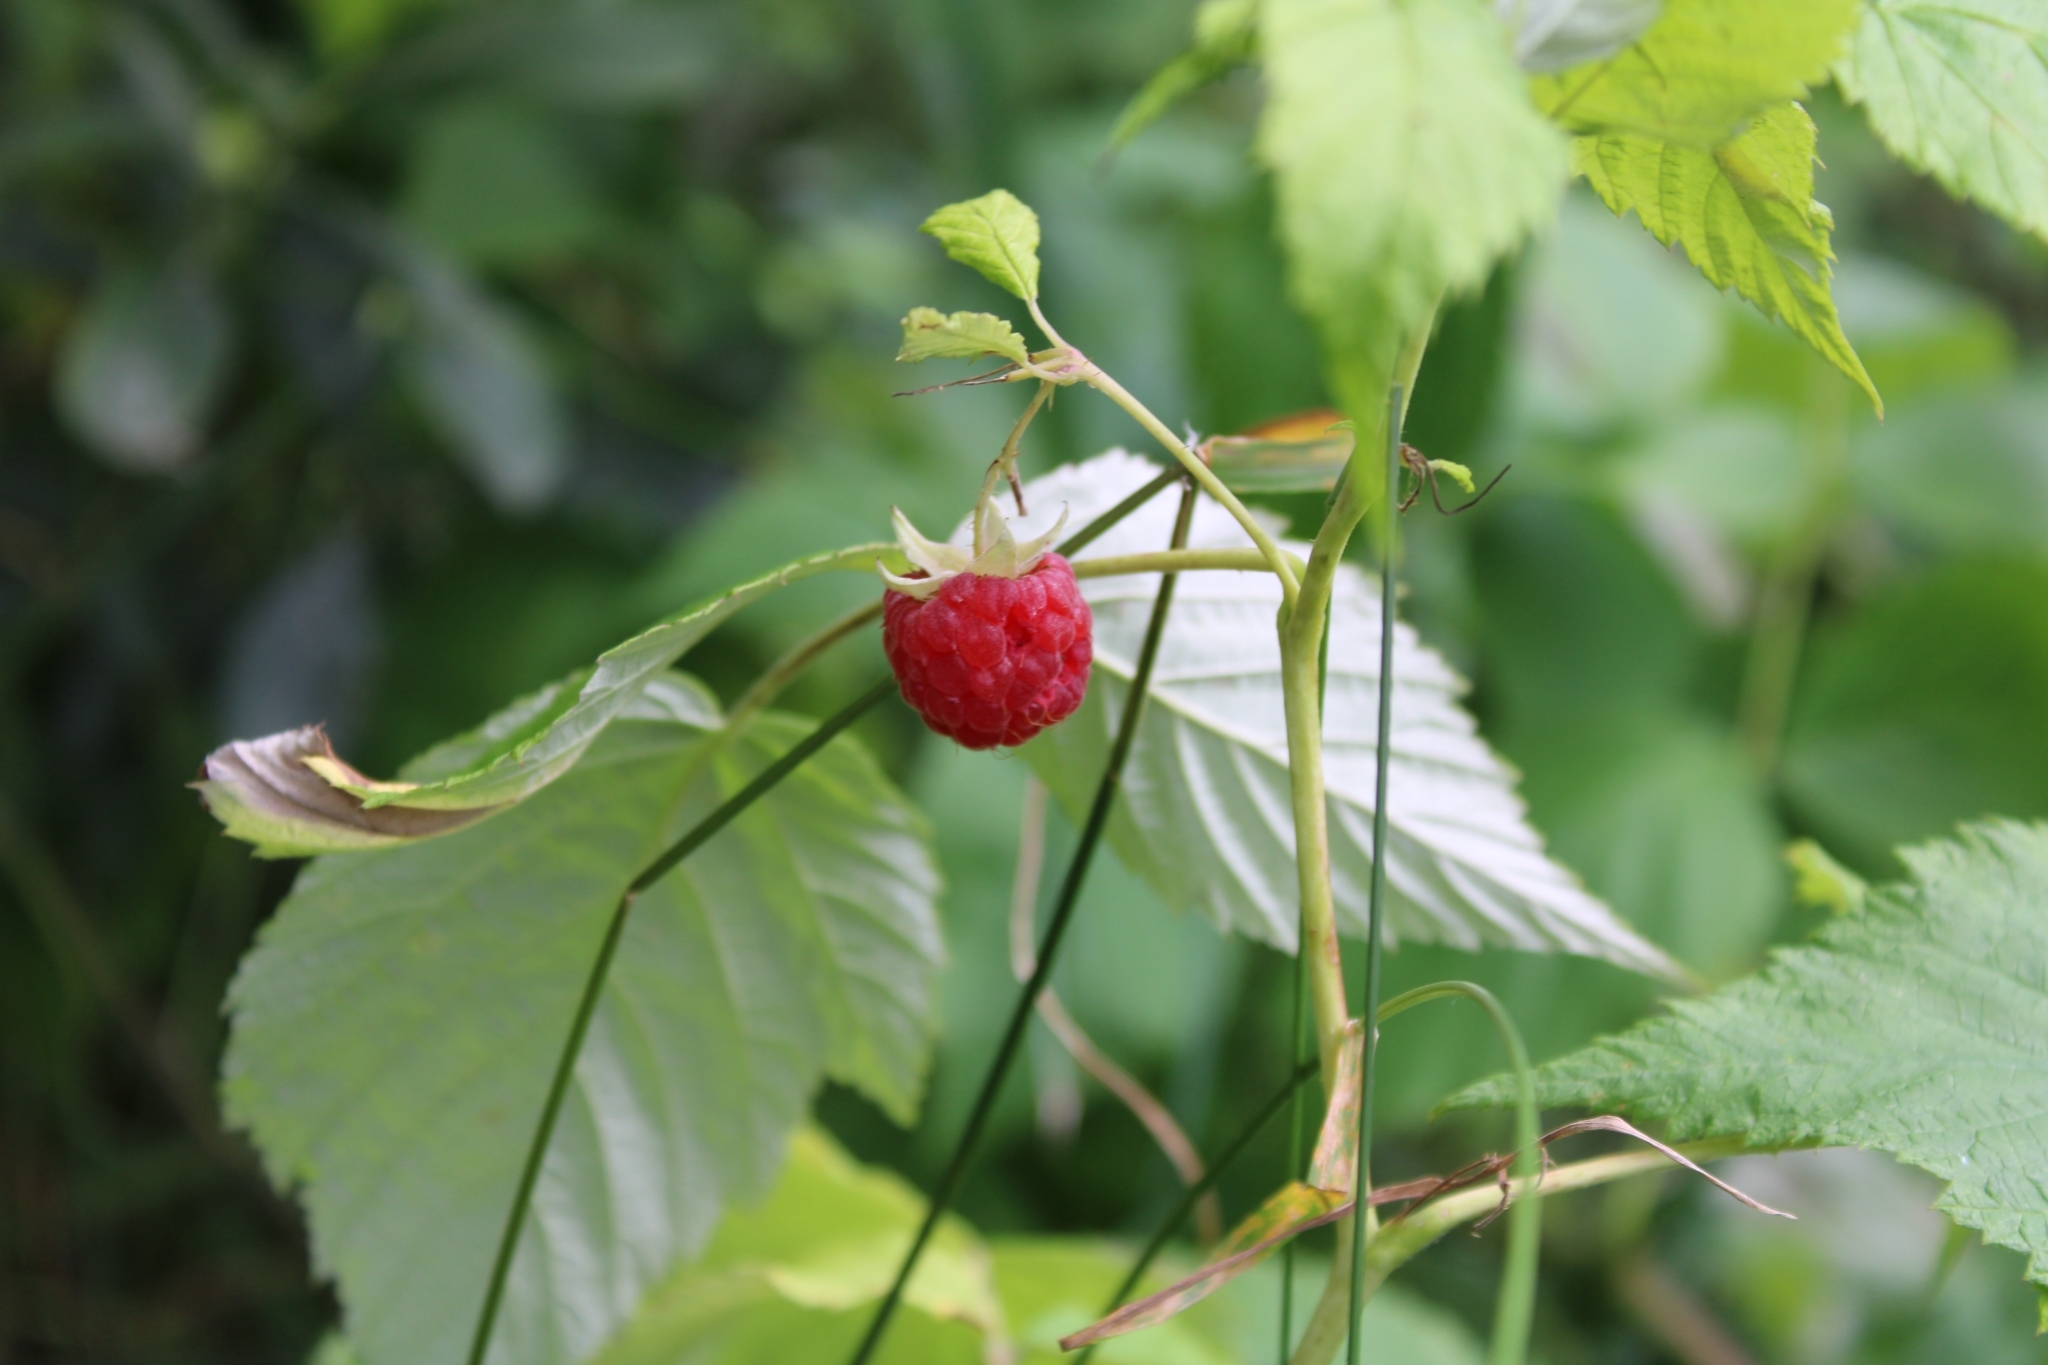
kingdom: Plantae
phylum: Tracheophyta
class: Magnoliopsida
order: Rosales
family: Rosaceae
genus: Rubus
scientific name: Rubus idaeus
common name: Raspberry
